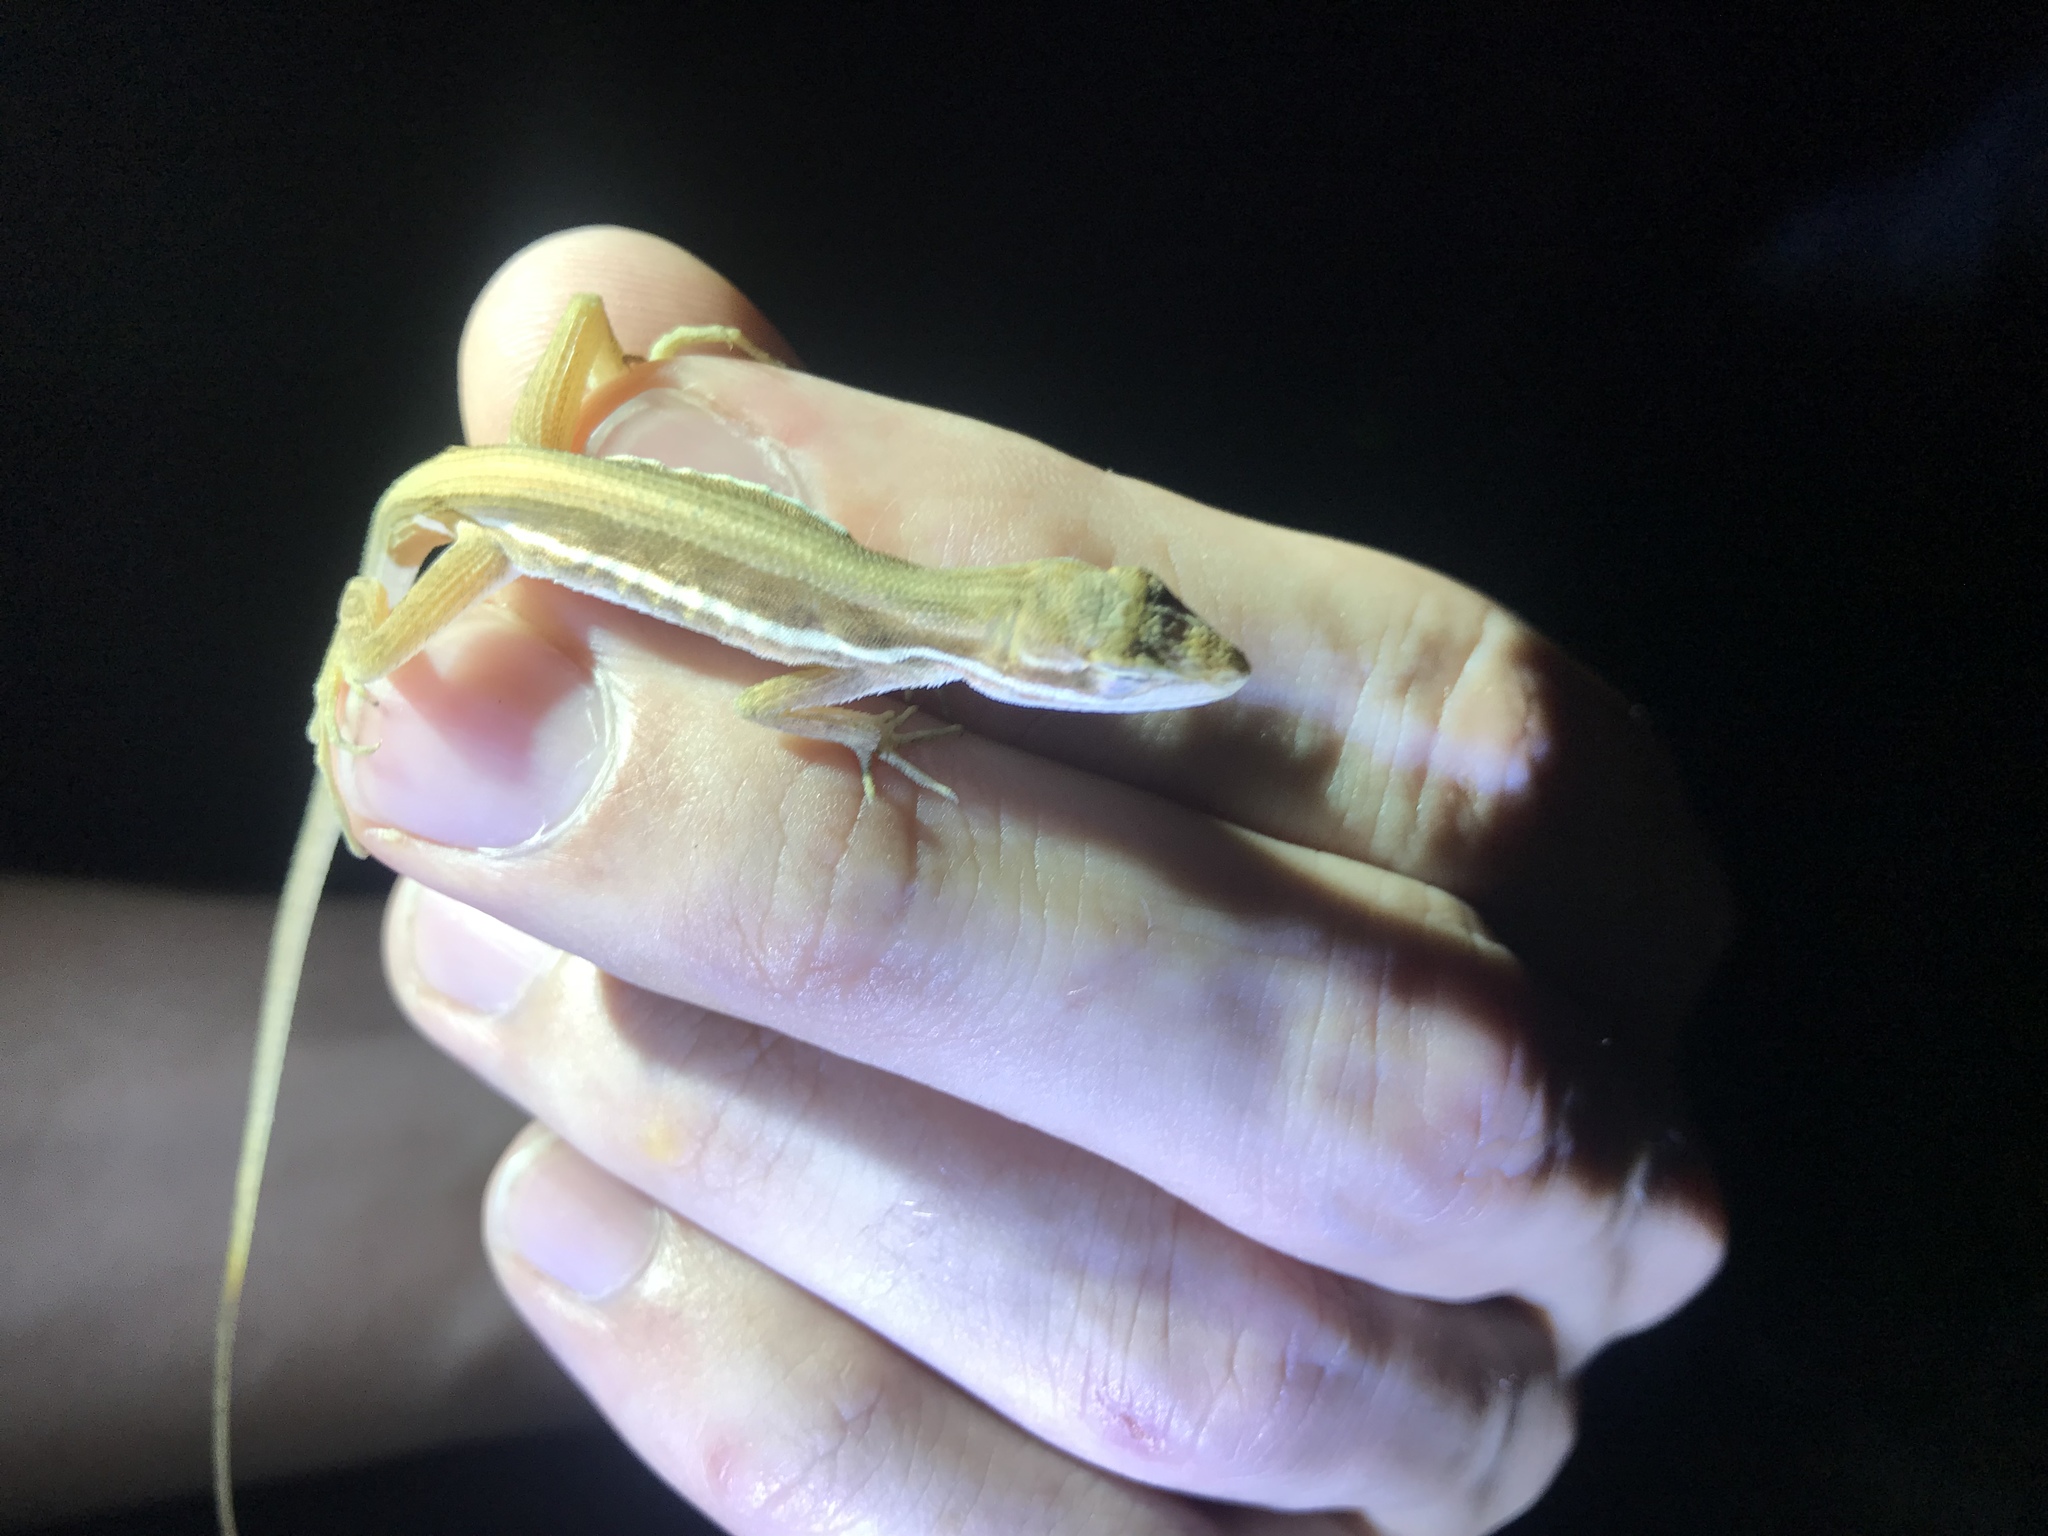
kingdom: Animalia
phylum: Chordata
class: Squamata
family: Dactyloidae
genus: Anolis
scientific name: Anolis auratus
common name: Grass anole
